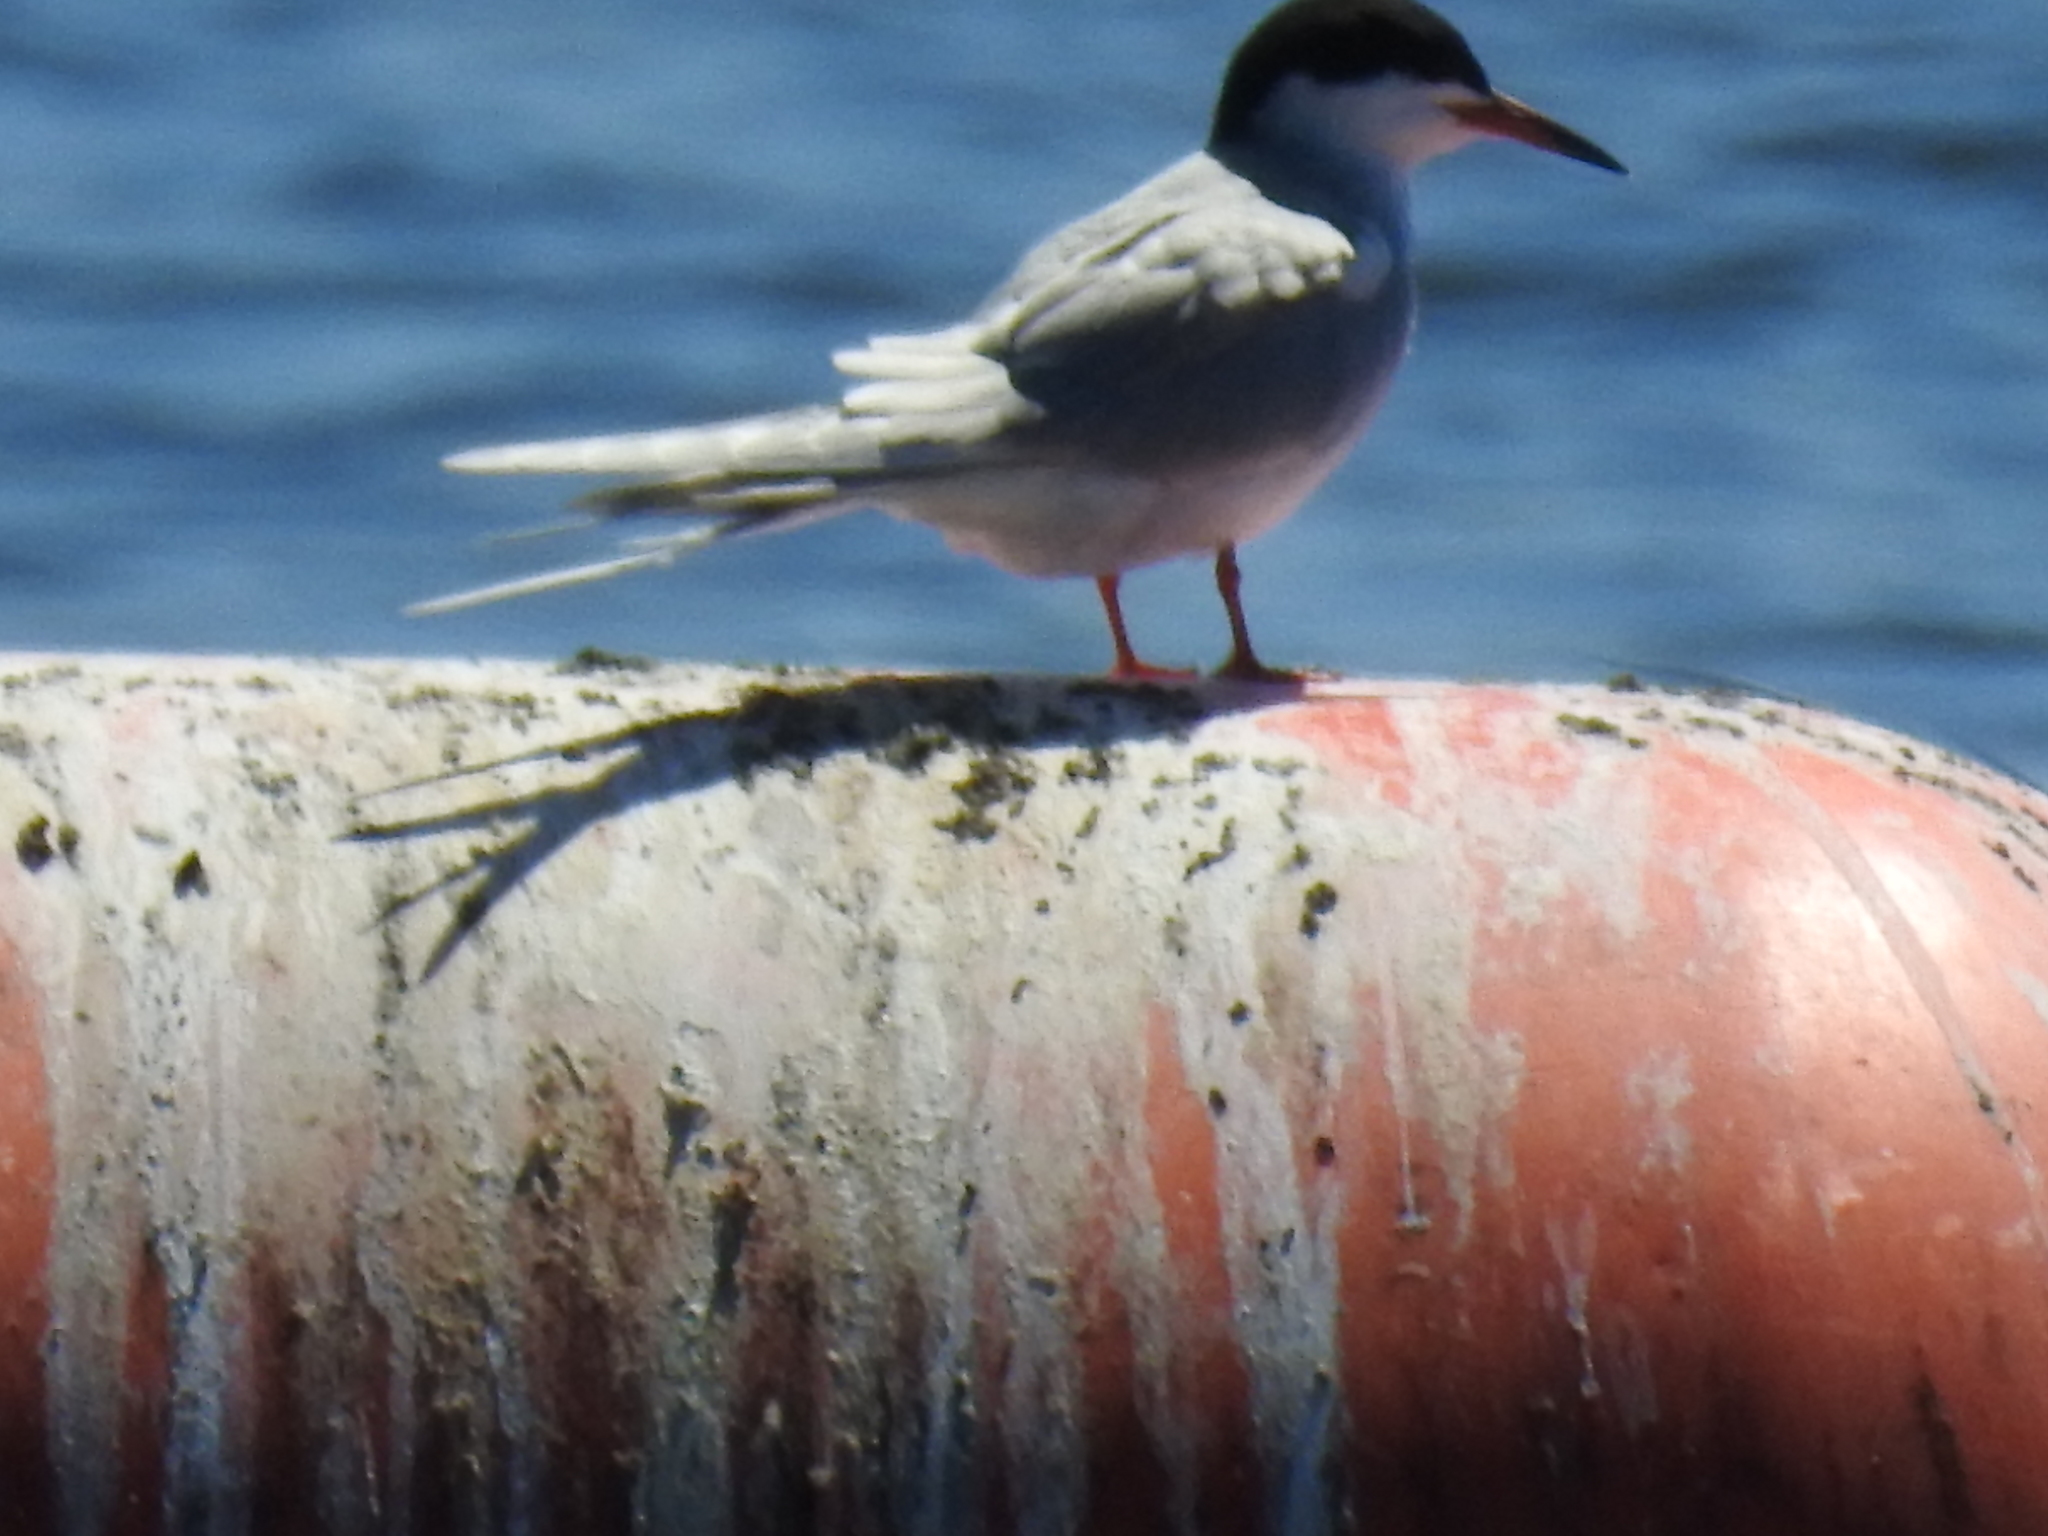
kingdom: Animalia
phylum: Chordata
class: Aves
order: Charadriiformes
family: Laridae
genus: Sterna
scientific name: Sterna forsteri
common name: Forster's tern
